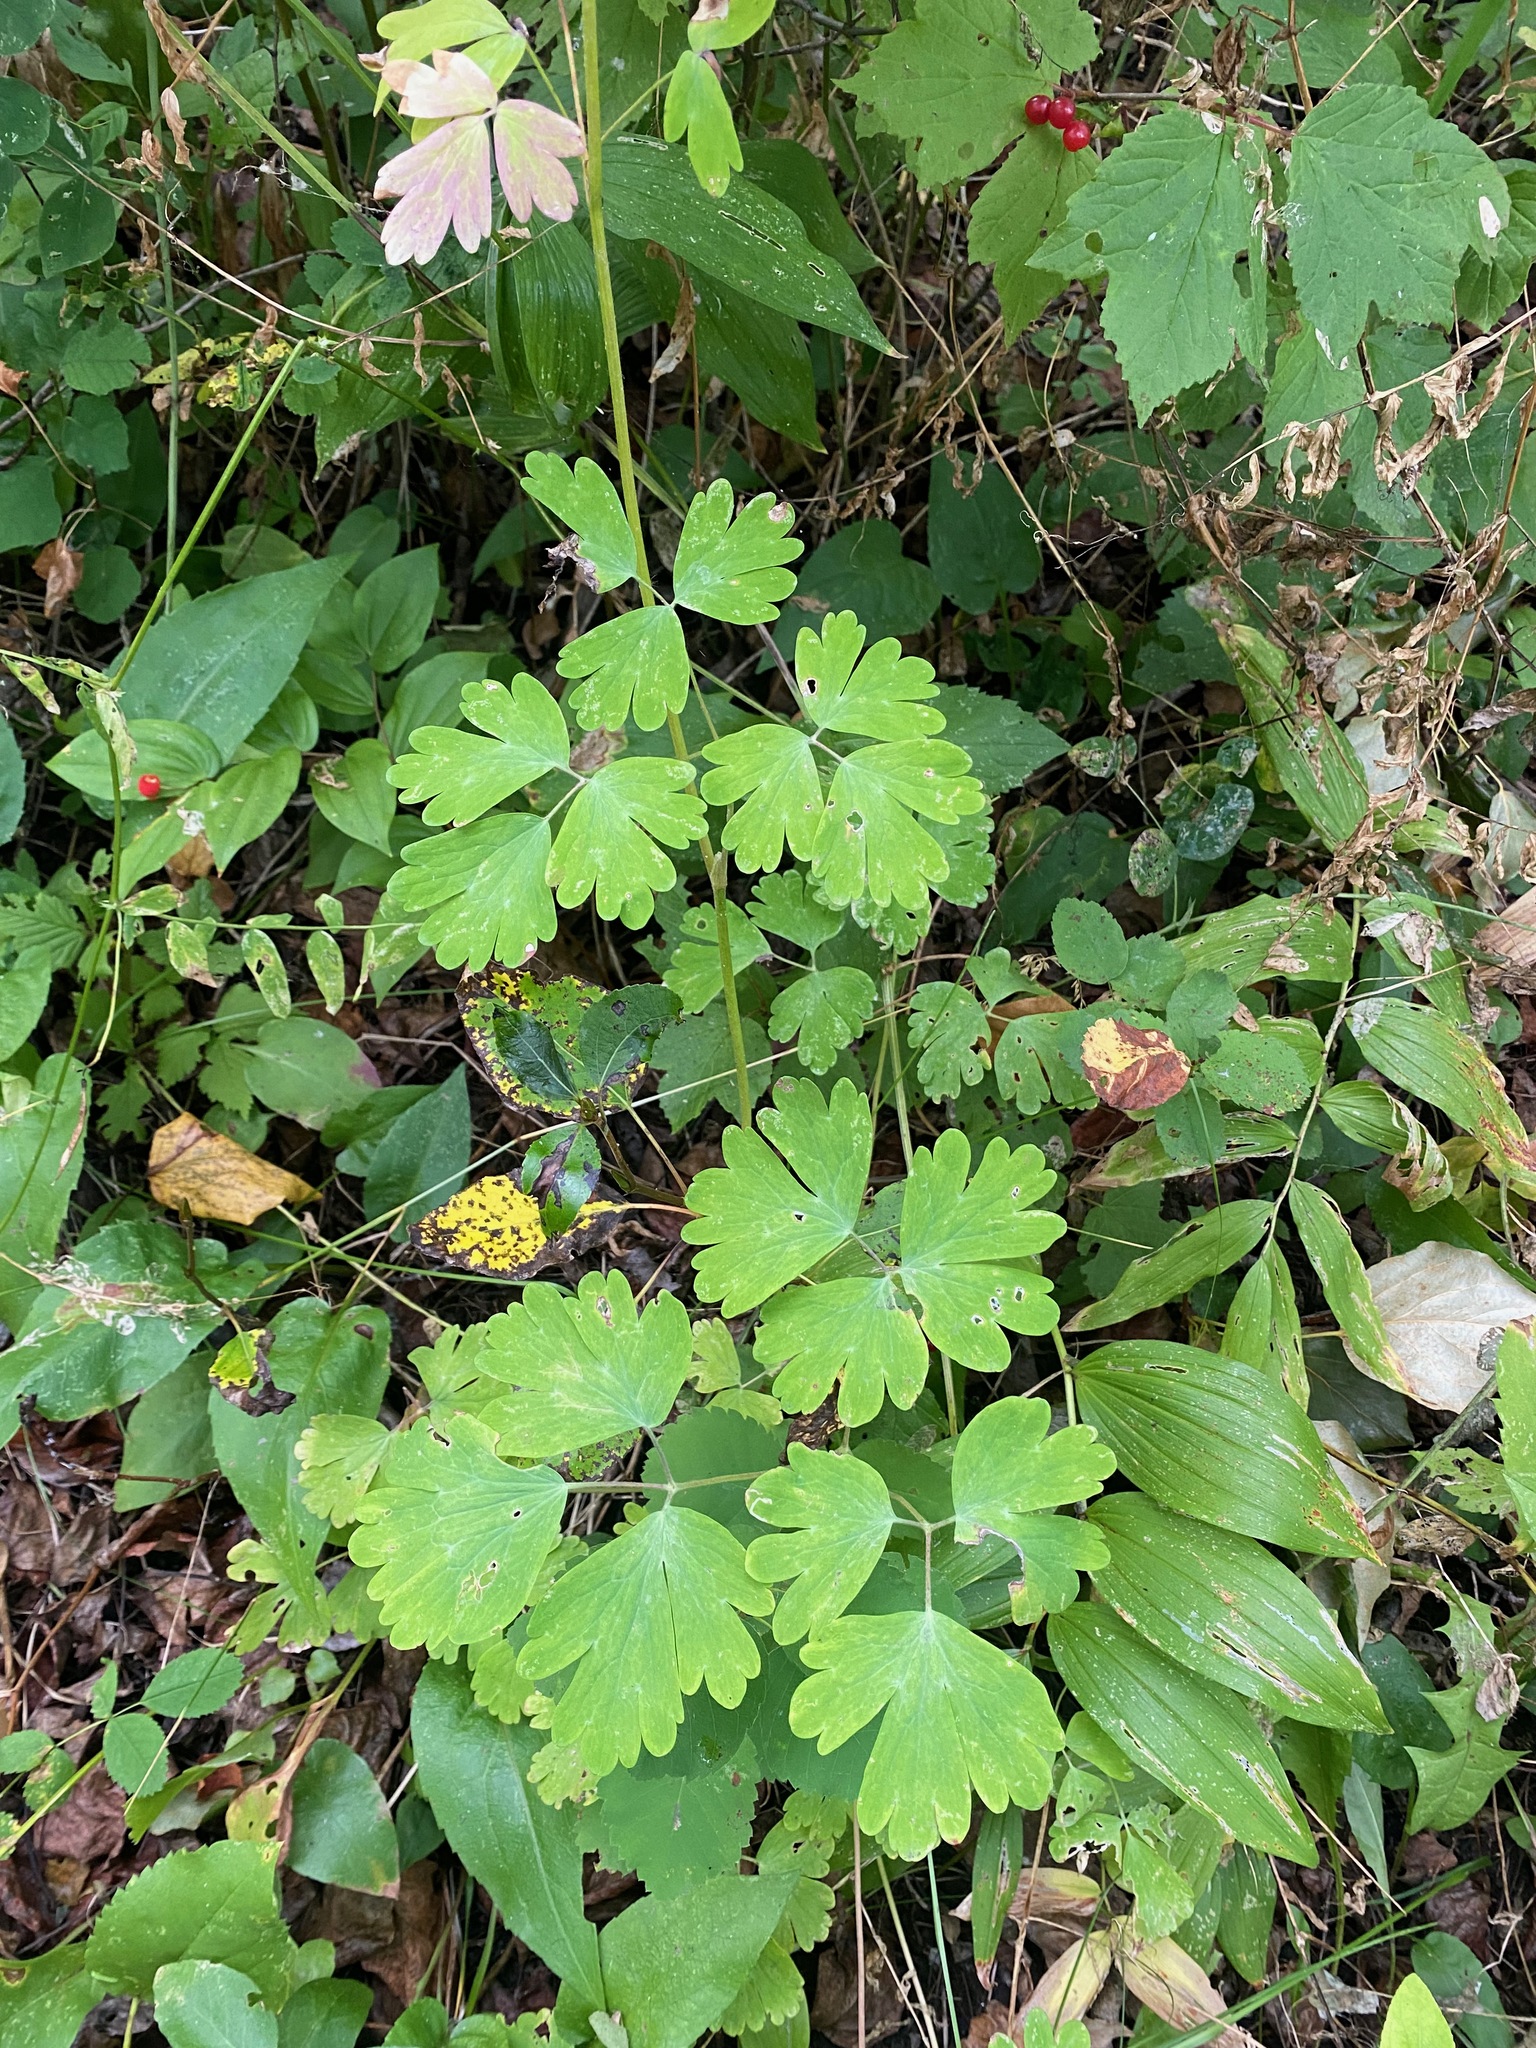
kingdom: Plantae
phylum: Tracheophyta
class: Magnoliopsida
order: Ranunculales
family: Ranunculaceae
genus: Aquilegia
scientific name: Aquilegia formosa
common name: Sitka columbine
